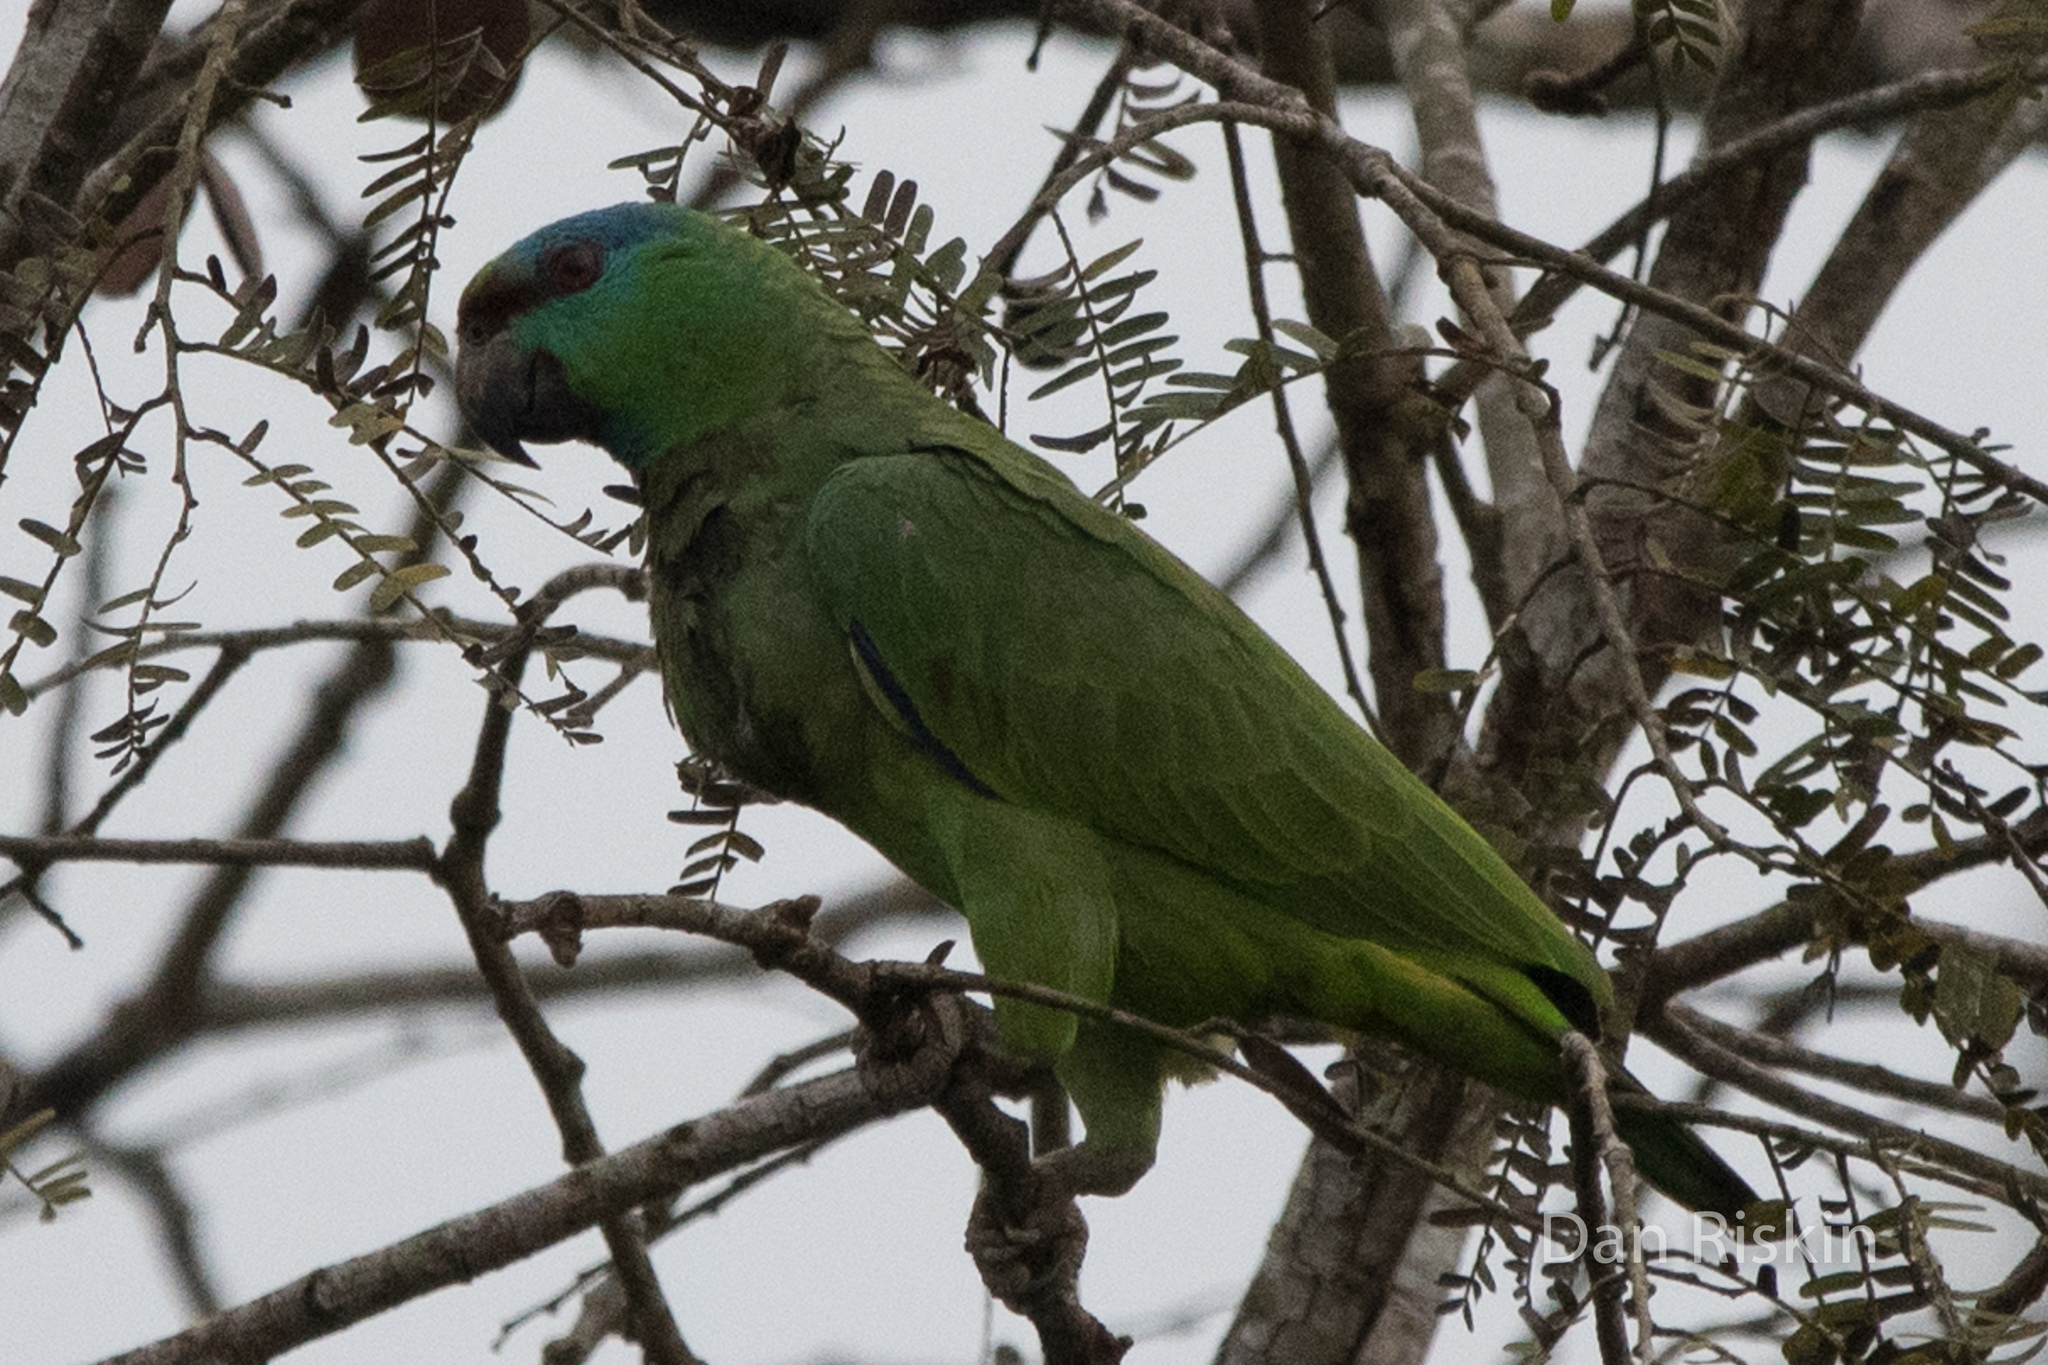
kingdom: Animalia
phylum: Chordata
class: Aves
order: Psittaciformes
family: Psittacidae
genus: Amazona
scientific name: Amazona festiva
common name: Festive amazon
